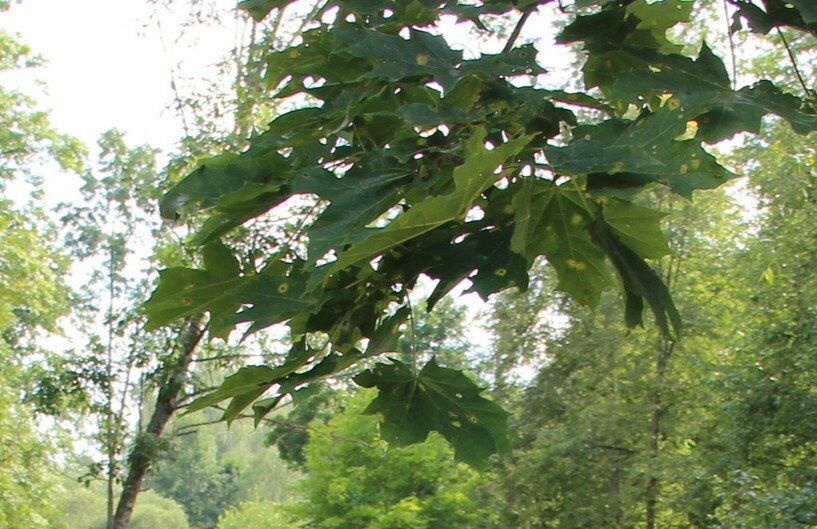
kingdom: Plantae
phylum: Tracheophyta
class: Magnoliopsida
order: Sapindales
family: Sapindaceae
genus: Acer
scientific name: Acer platanoides
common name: Norway maple
